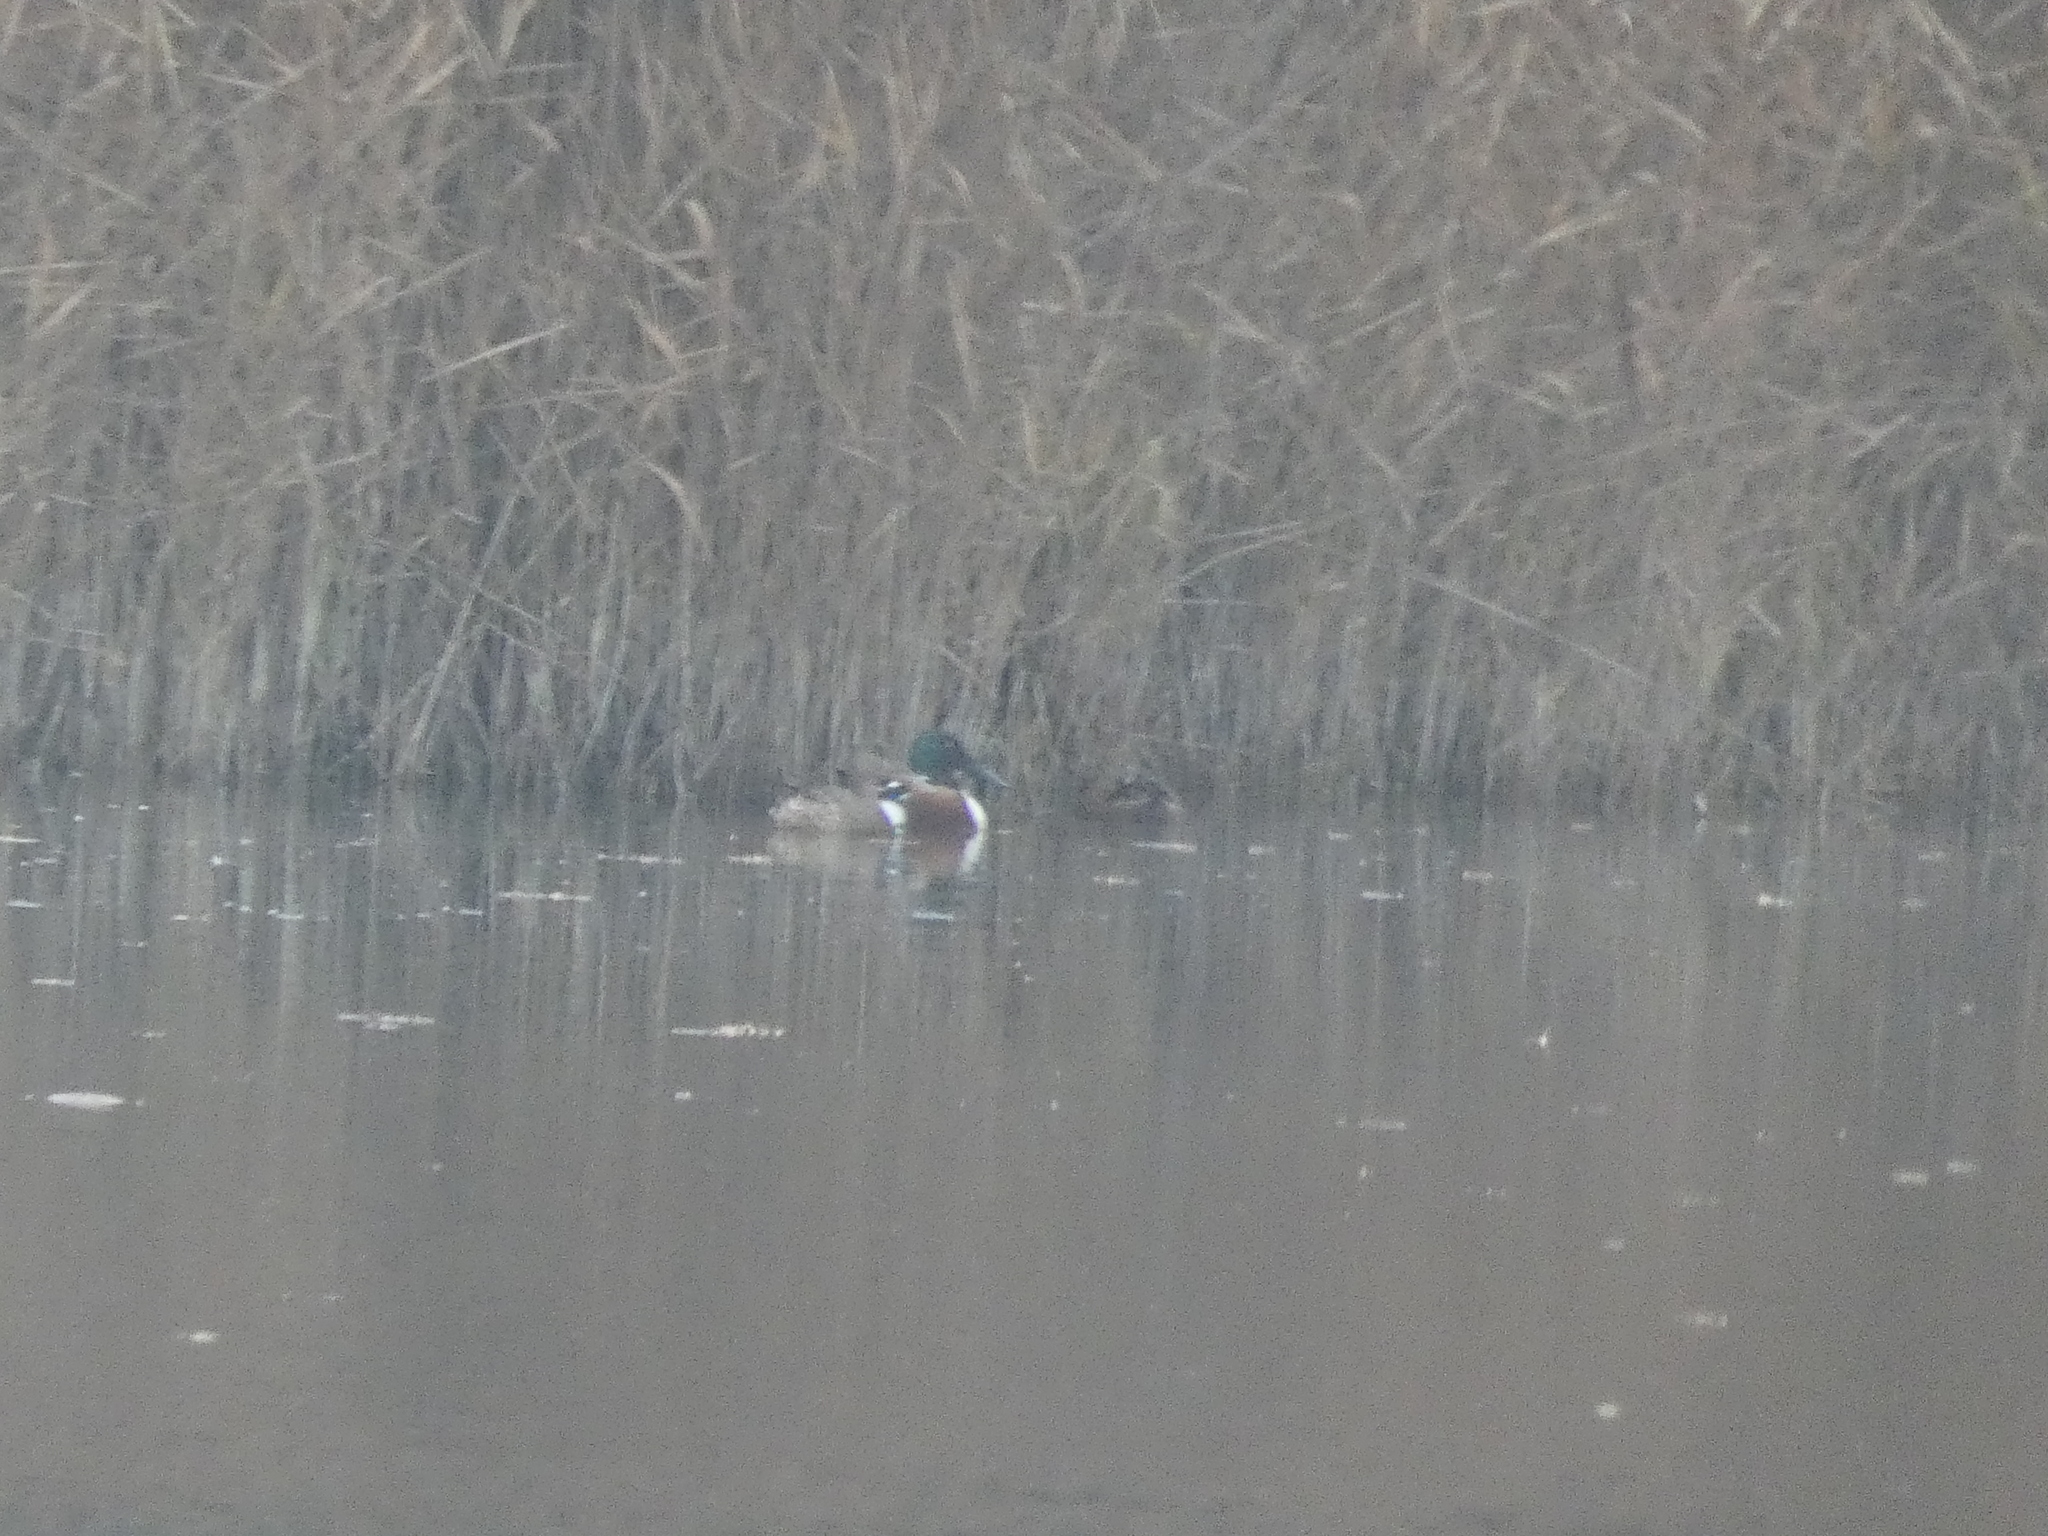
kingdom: Animalia
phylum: Chordata
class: Aves
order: Anseriformes
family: Anatidae
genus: Spatula
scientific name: Spatula clypeata
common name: Northern shoveler
